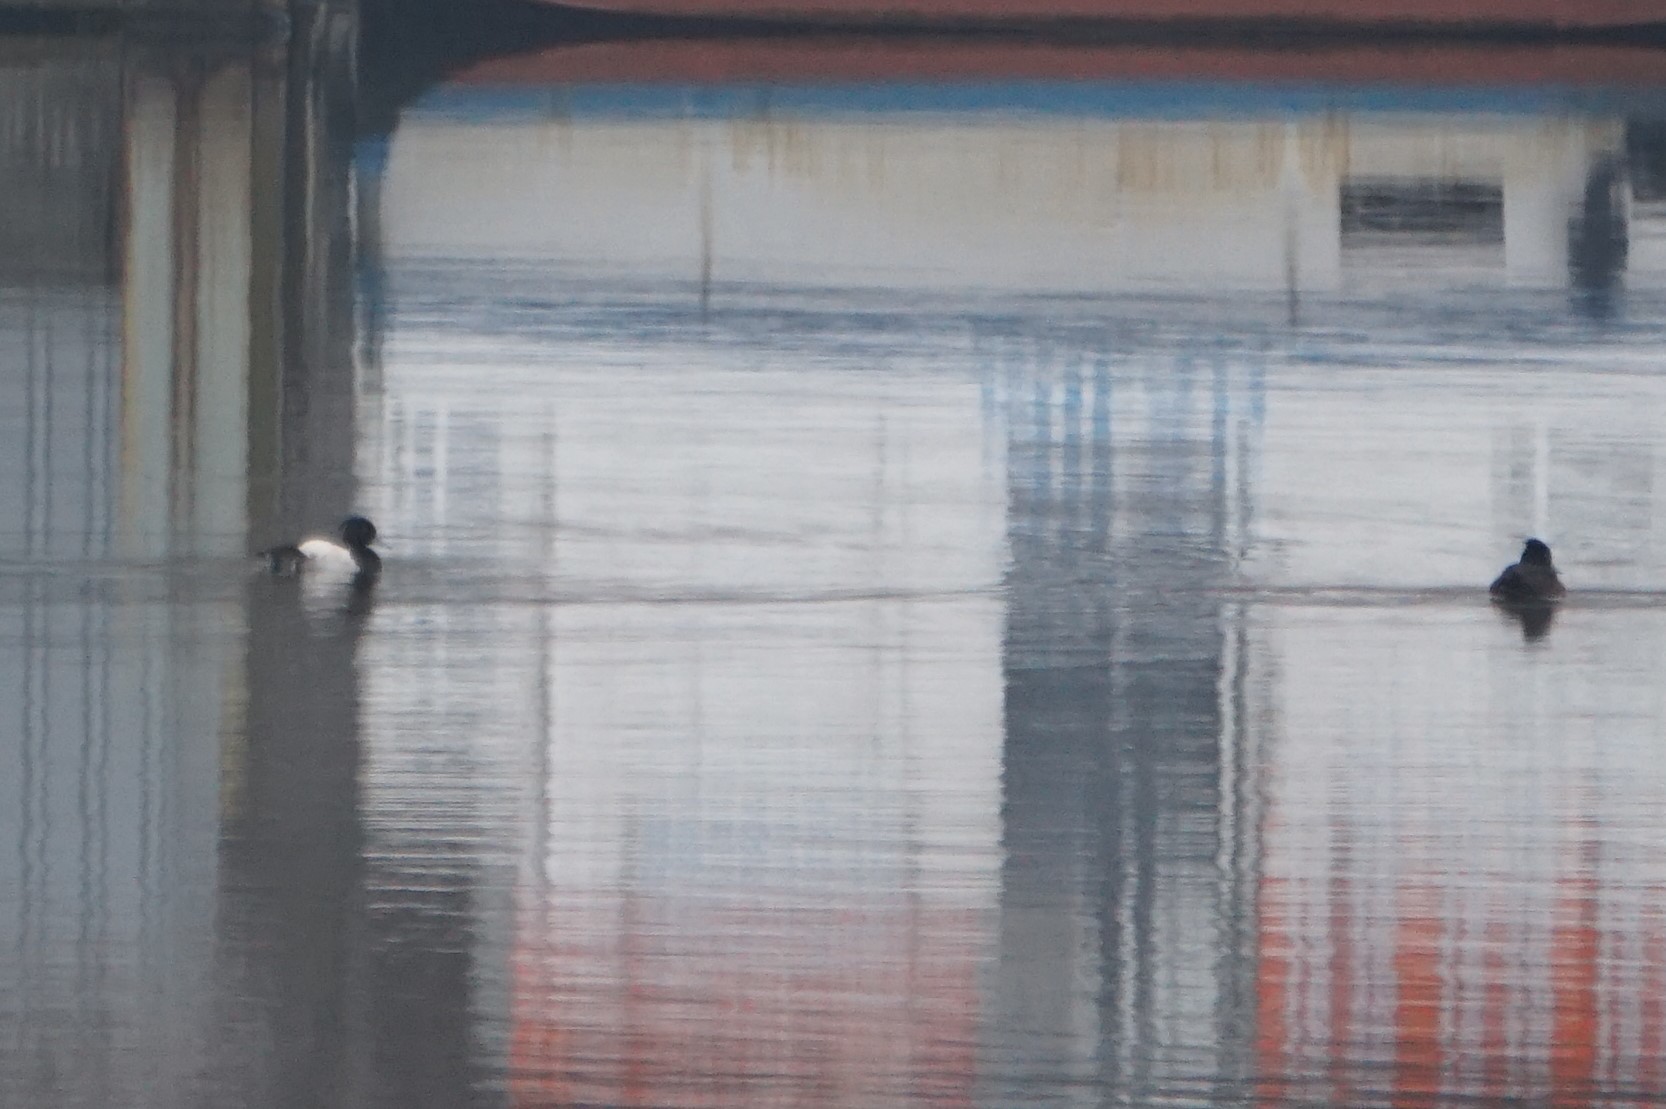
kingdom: Animalia
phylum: Chordata
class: Aves
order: Anseriformes
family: Anatidae
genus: Aythya
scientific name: Aythya fuligula
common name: Tufted duck
